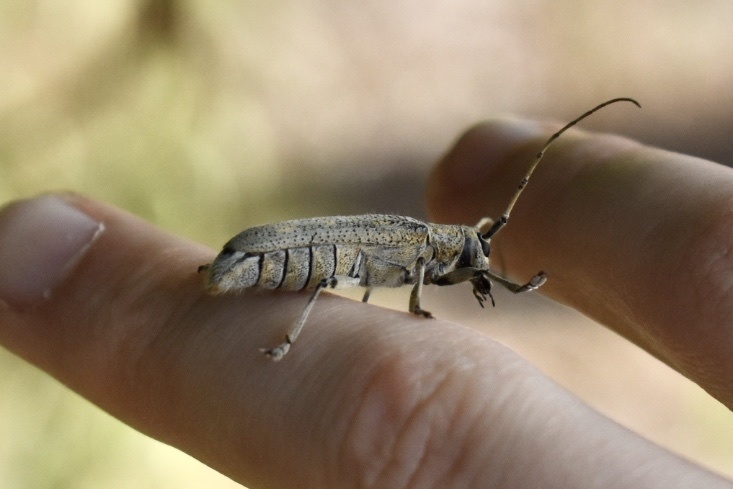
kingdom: Animalia
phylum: Arthropoda
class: Insecta
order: Coleoptera
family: Cerambycidae
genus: Saperda
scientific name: Saperda calcarata
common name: Poplar borer
